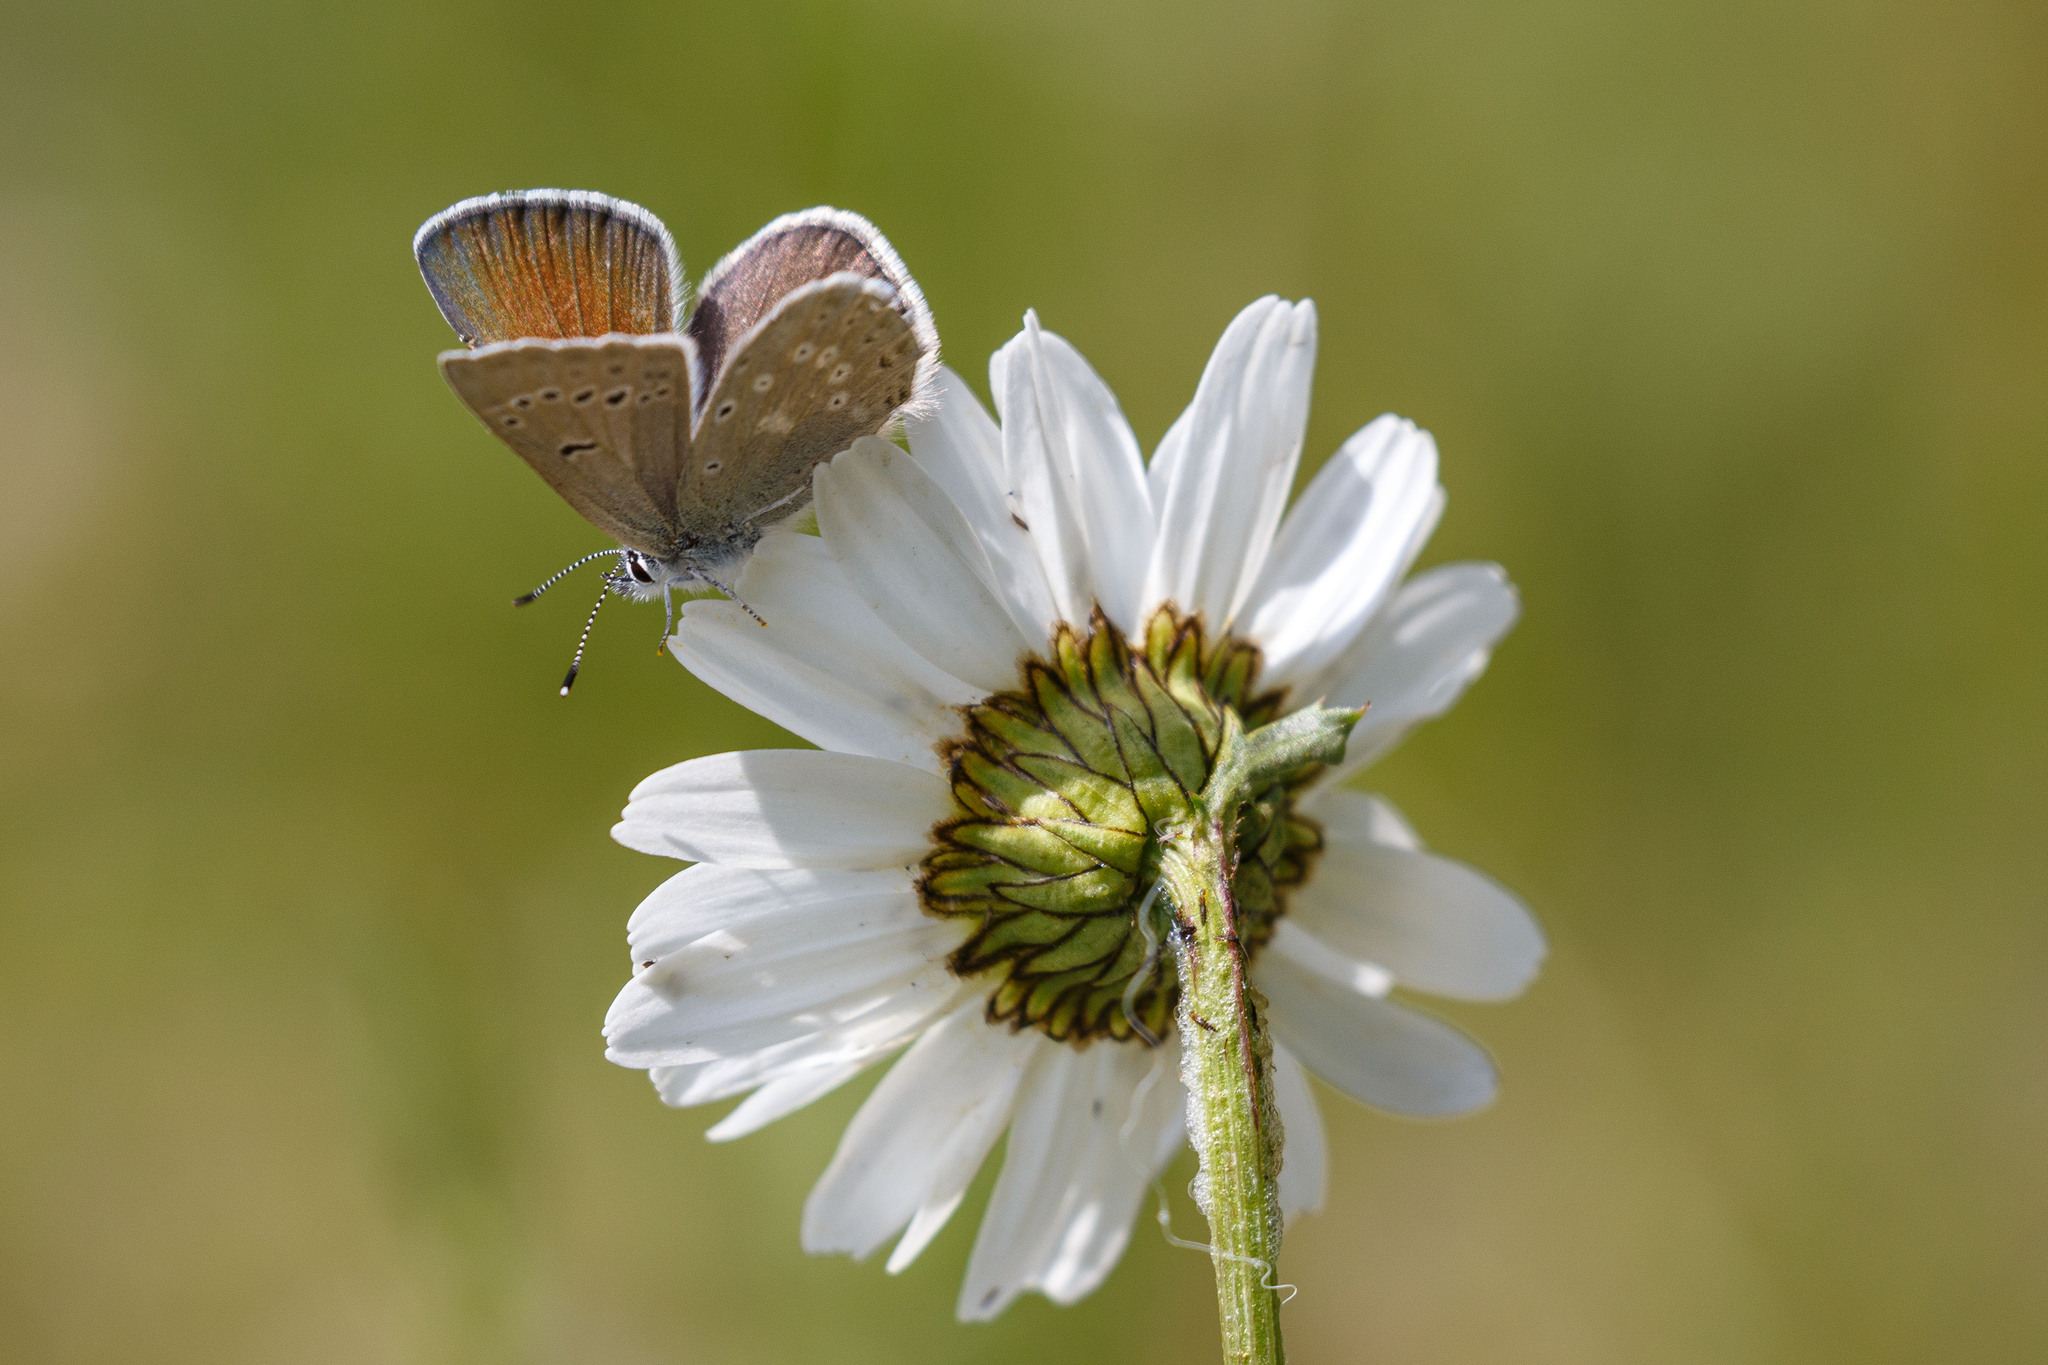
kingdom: Animalia
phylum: Arthropoda
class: Insecta
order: Lepidoptera
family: Lycaenidae
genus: Icaricia
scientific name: Icaricia icarioides
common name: Boisduval's blue
